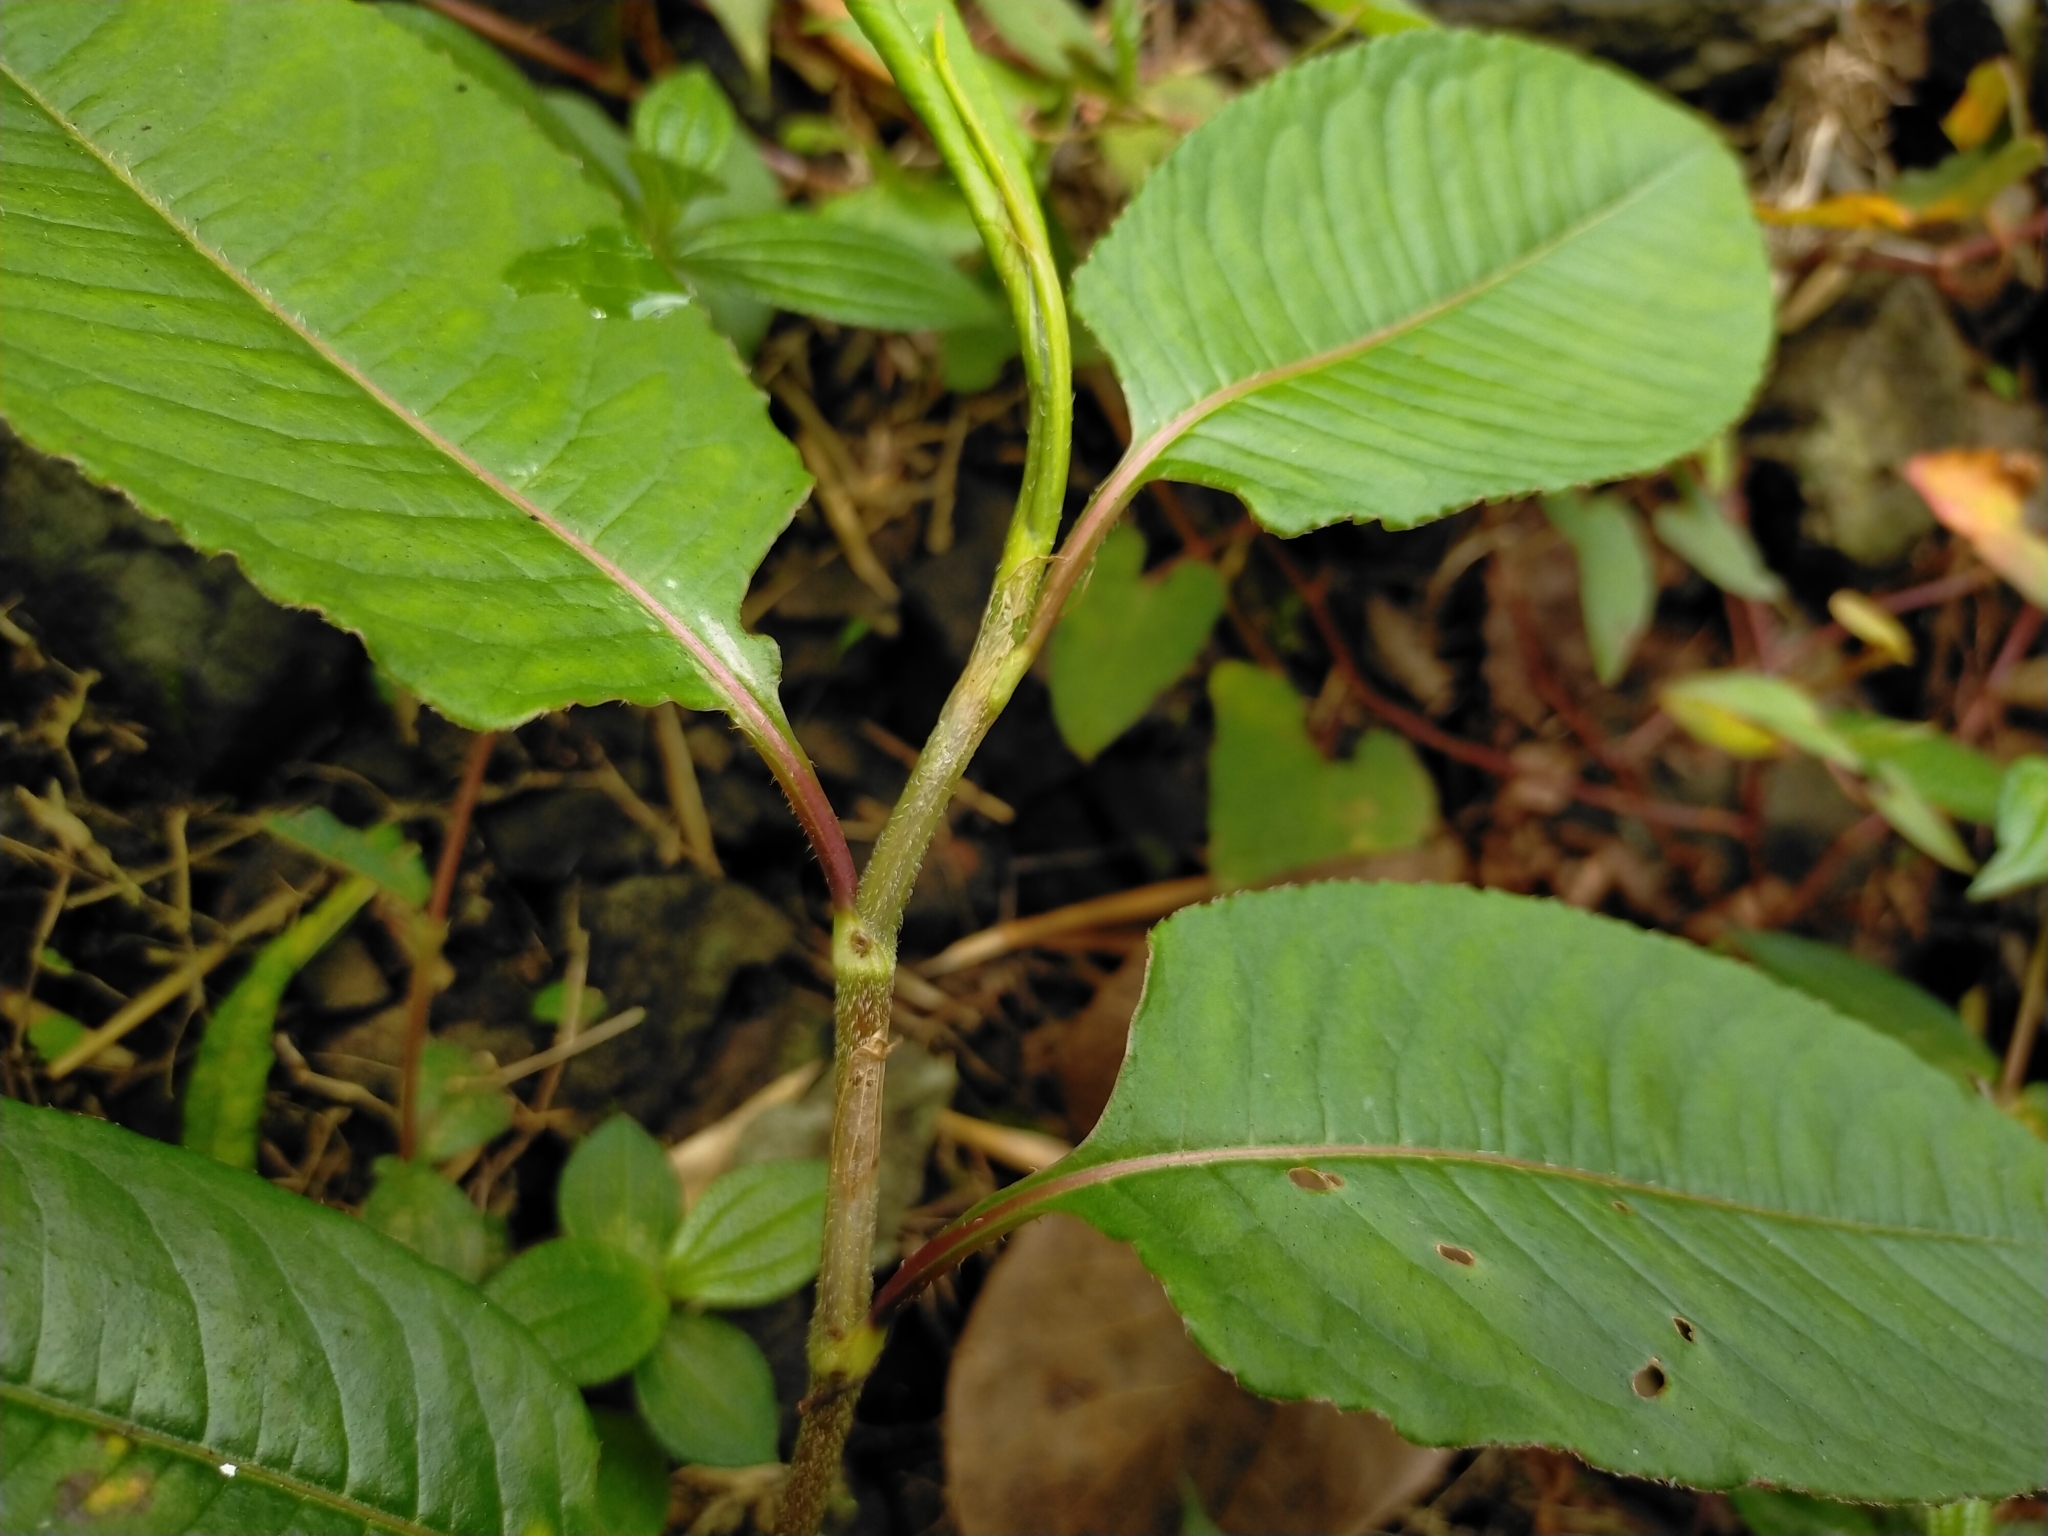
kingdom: Plantae
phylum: Tracheophyta
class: Magnoliopsida
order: Caryophyllales
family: Polygonaceae
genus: Persicaria
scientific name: Persicaria chinensis
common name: Chinese knotweed
